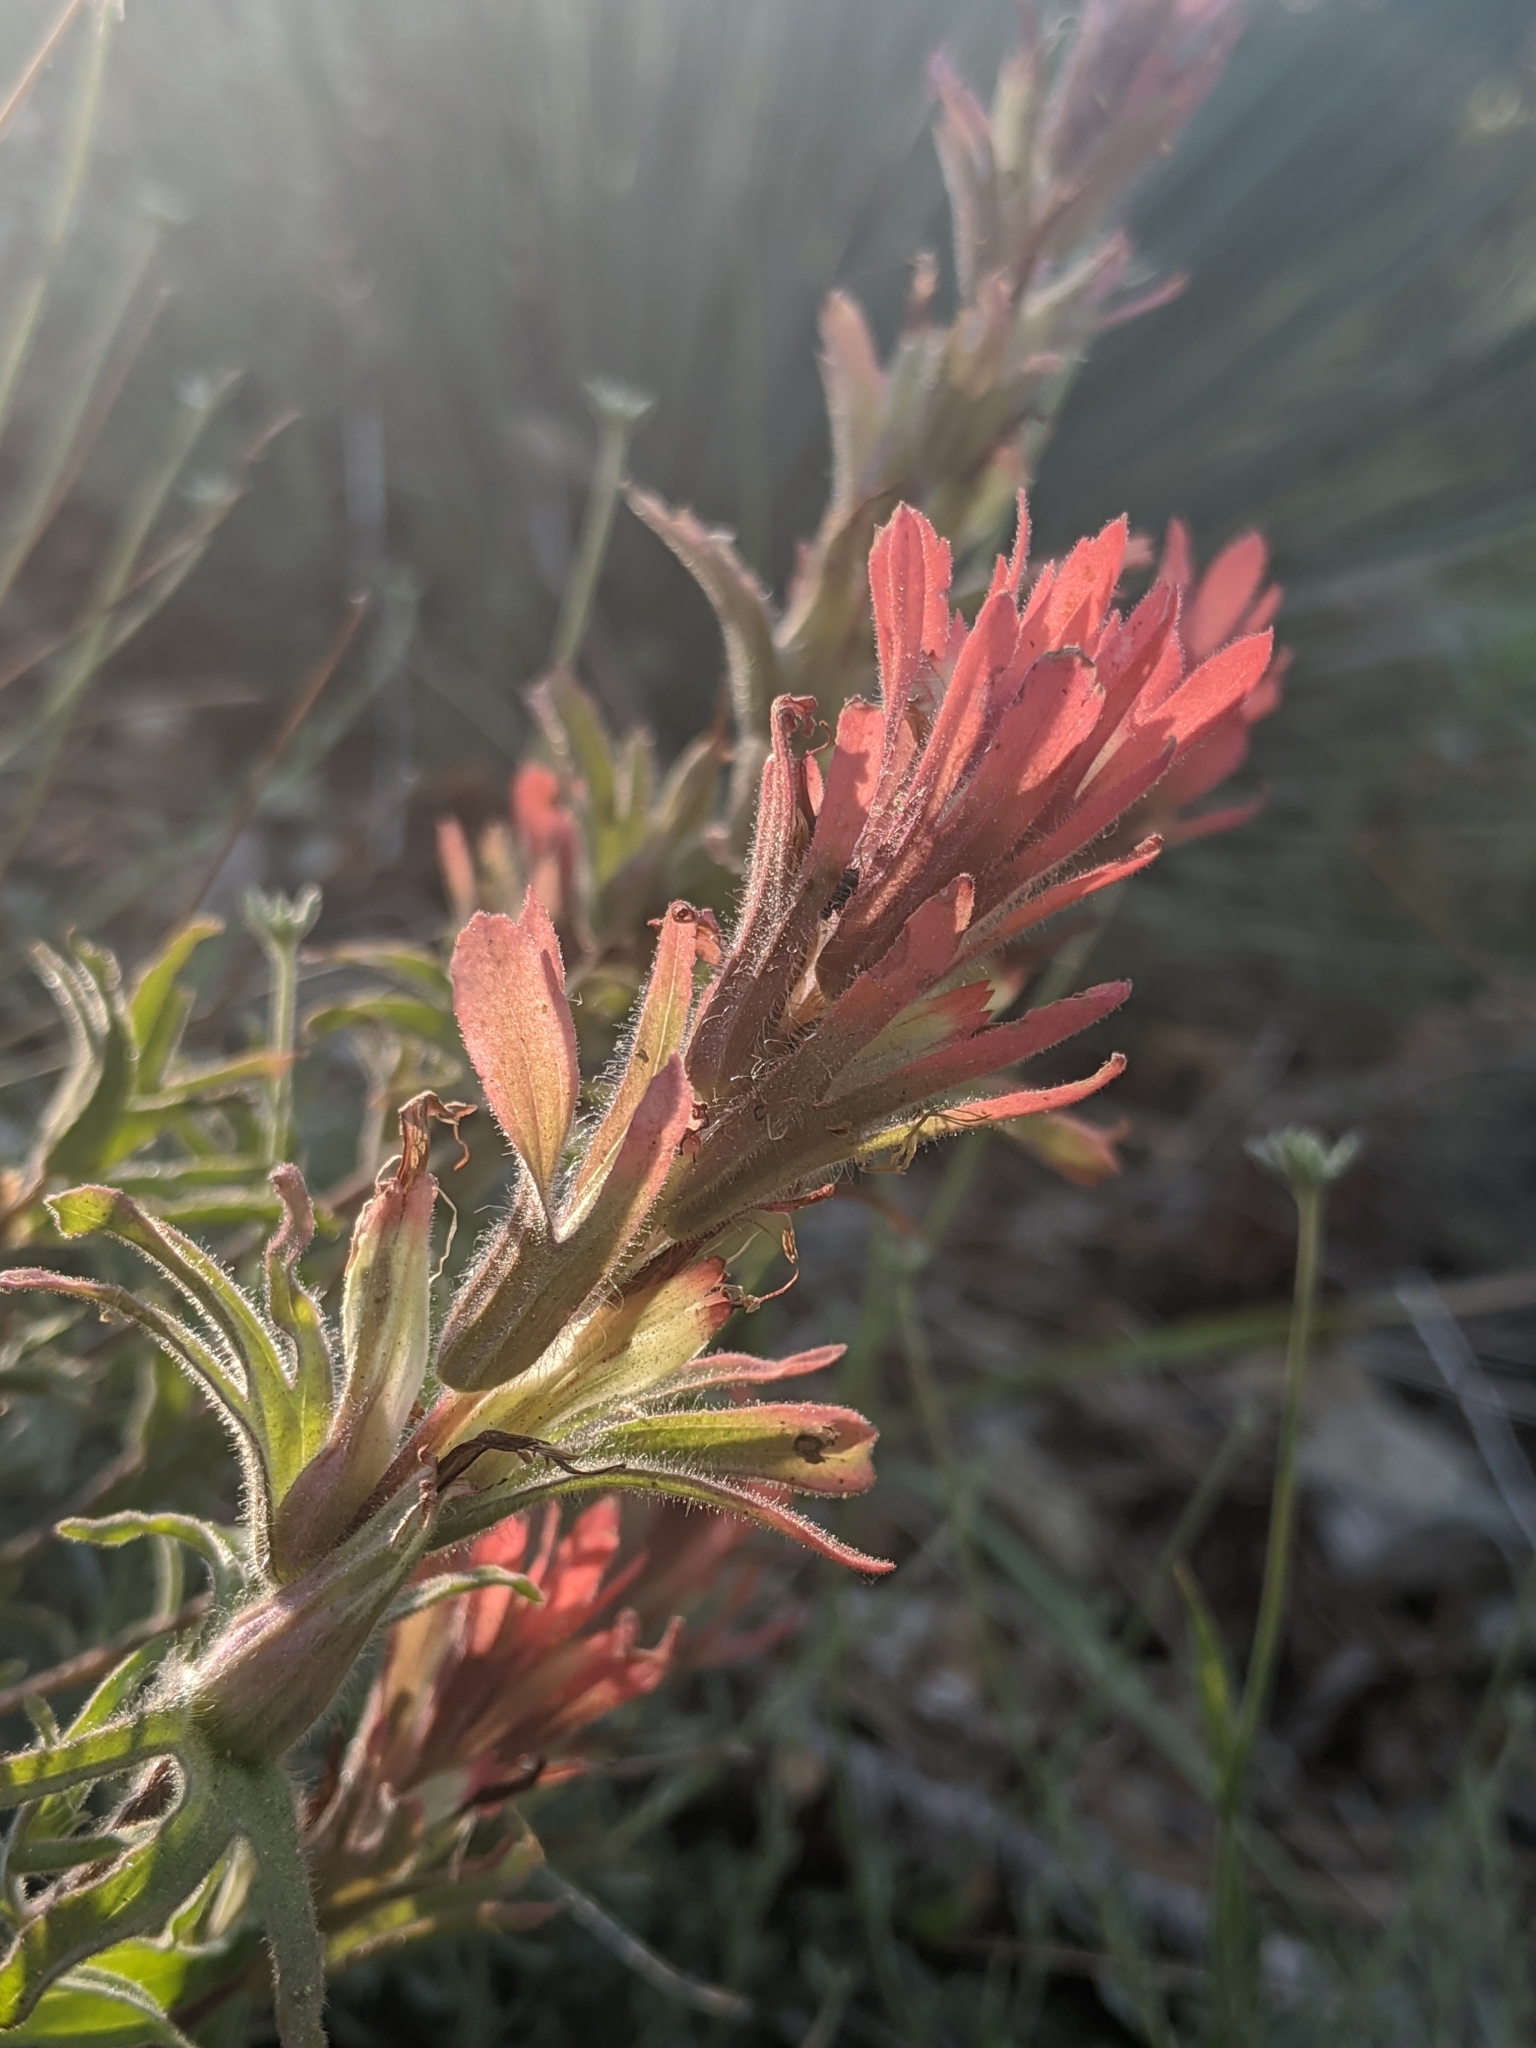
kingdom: Plantae
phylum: Tracheophyta
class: Magnoliopsida
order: Lamiales
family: Orobanchaceae
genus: Castilleja
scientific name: Castilleja martini
